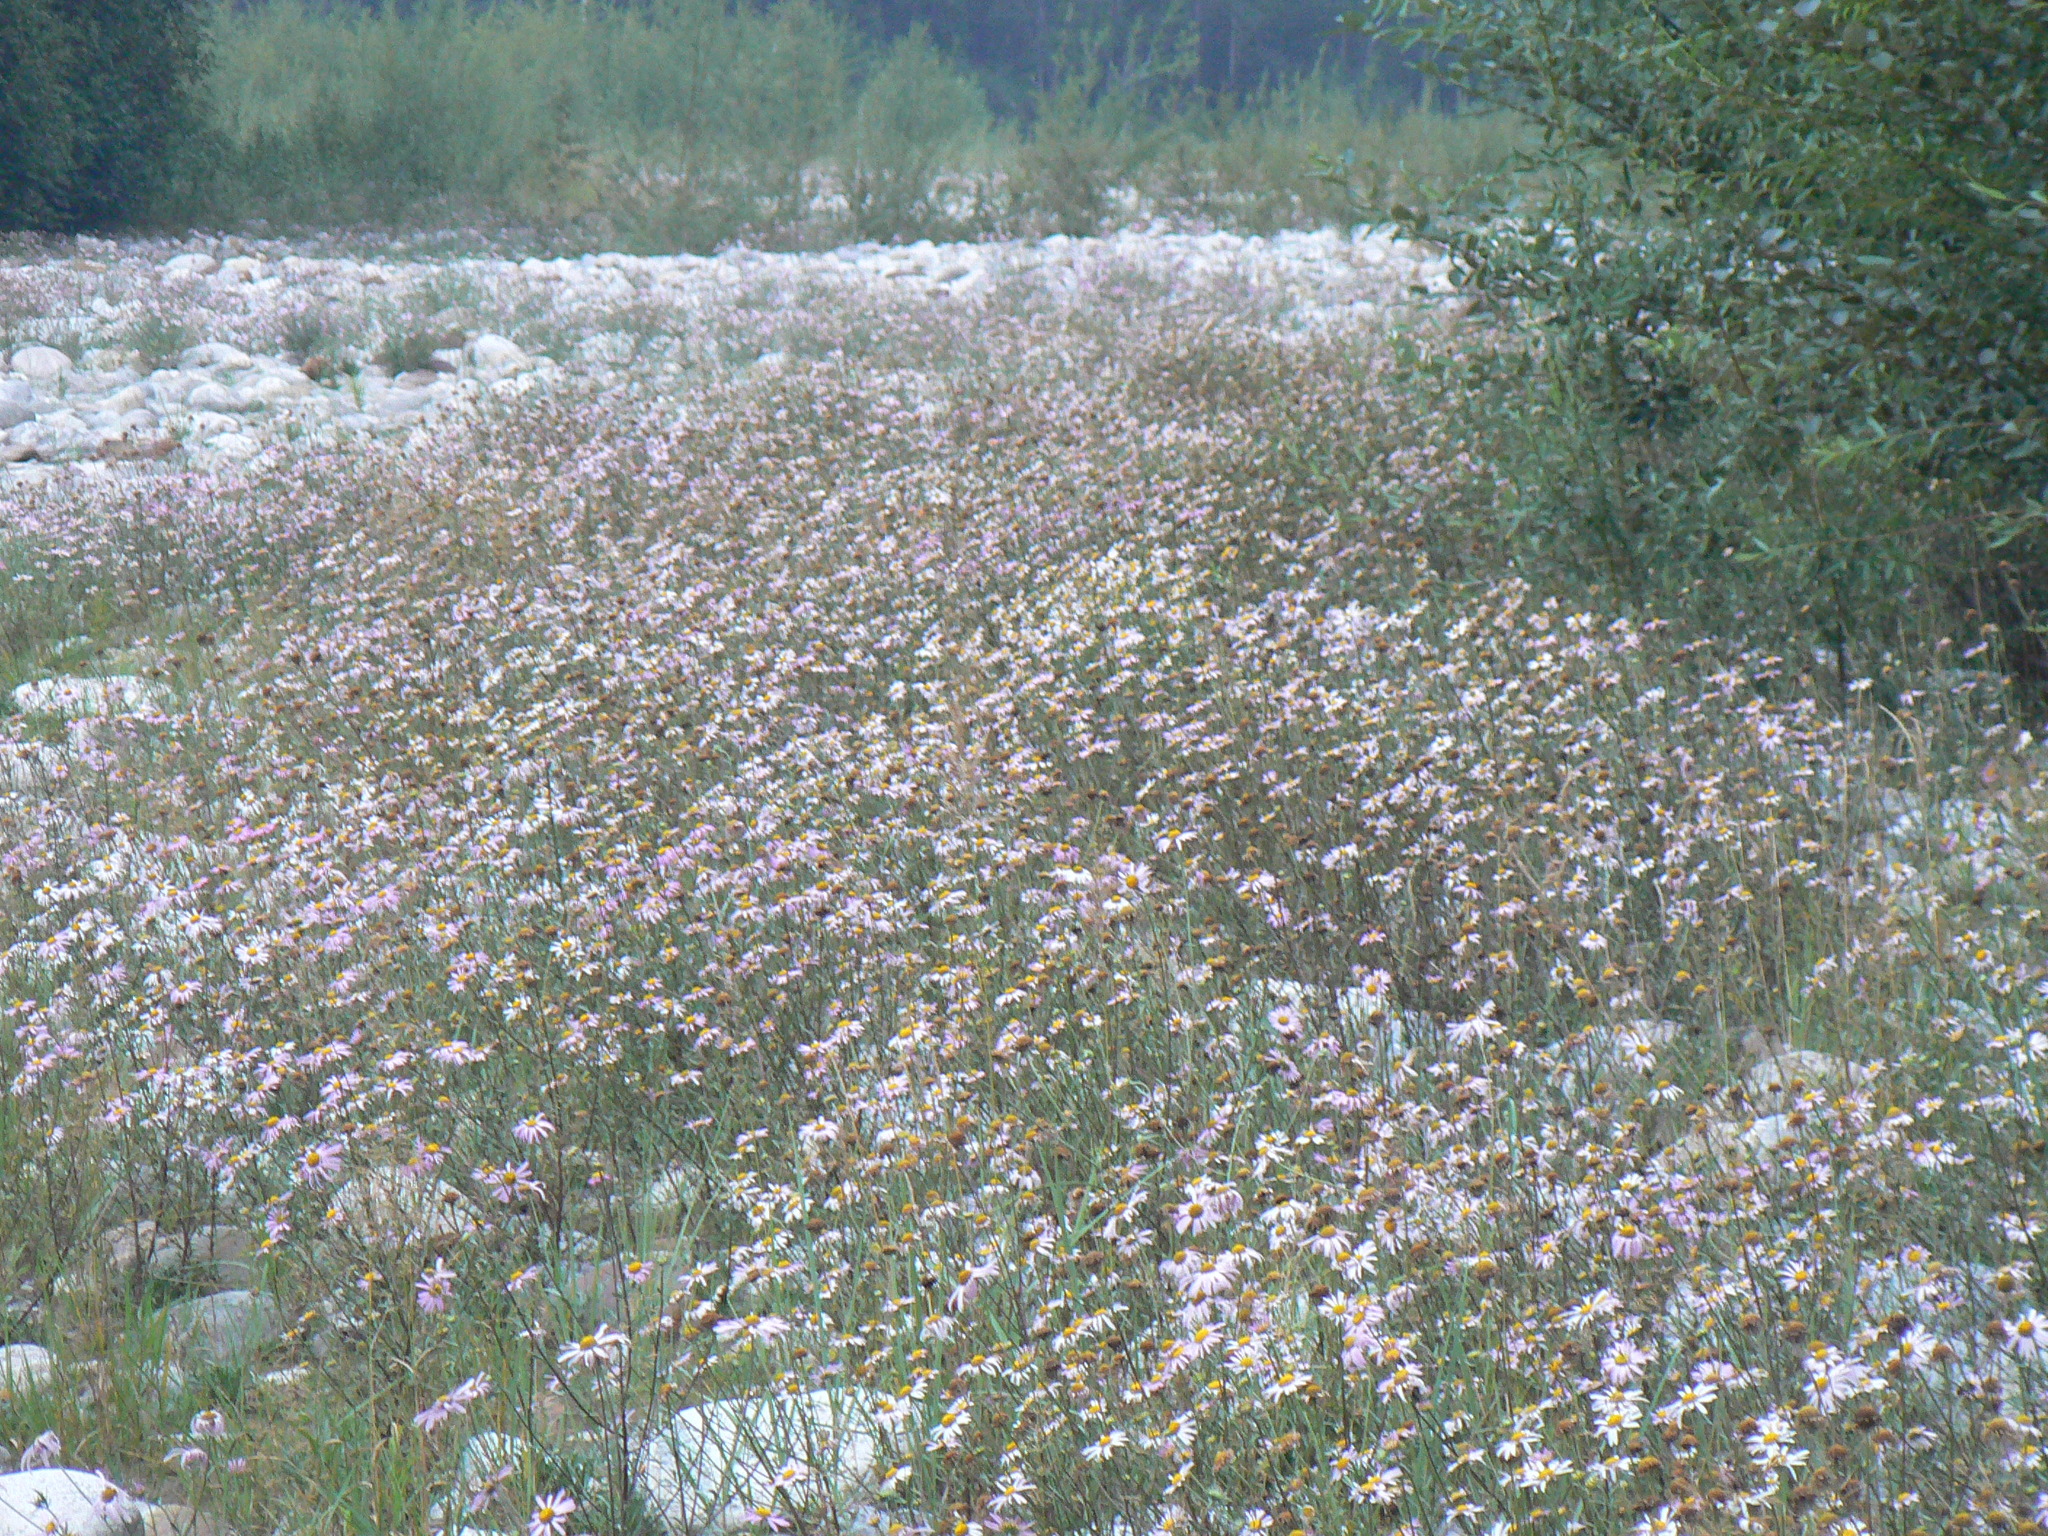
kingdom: Plantae
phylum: Tracheophyta
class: Magnoliopsida
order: Asterales
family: Asteraceae
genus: Chrysanthemum
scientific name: Chrysanthemum zawadzkii
